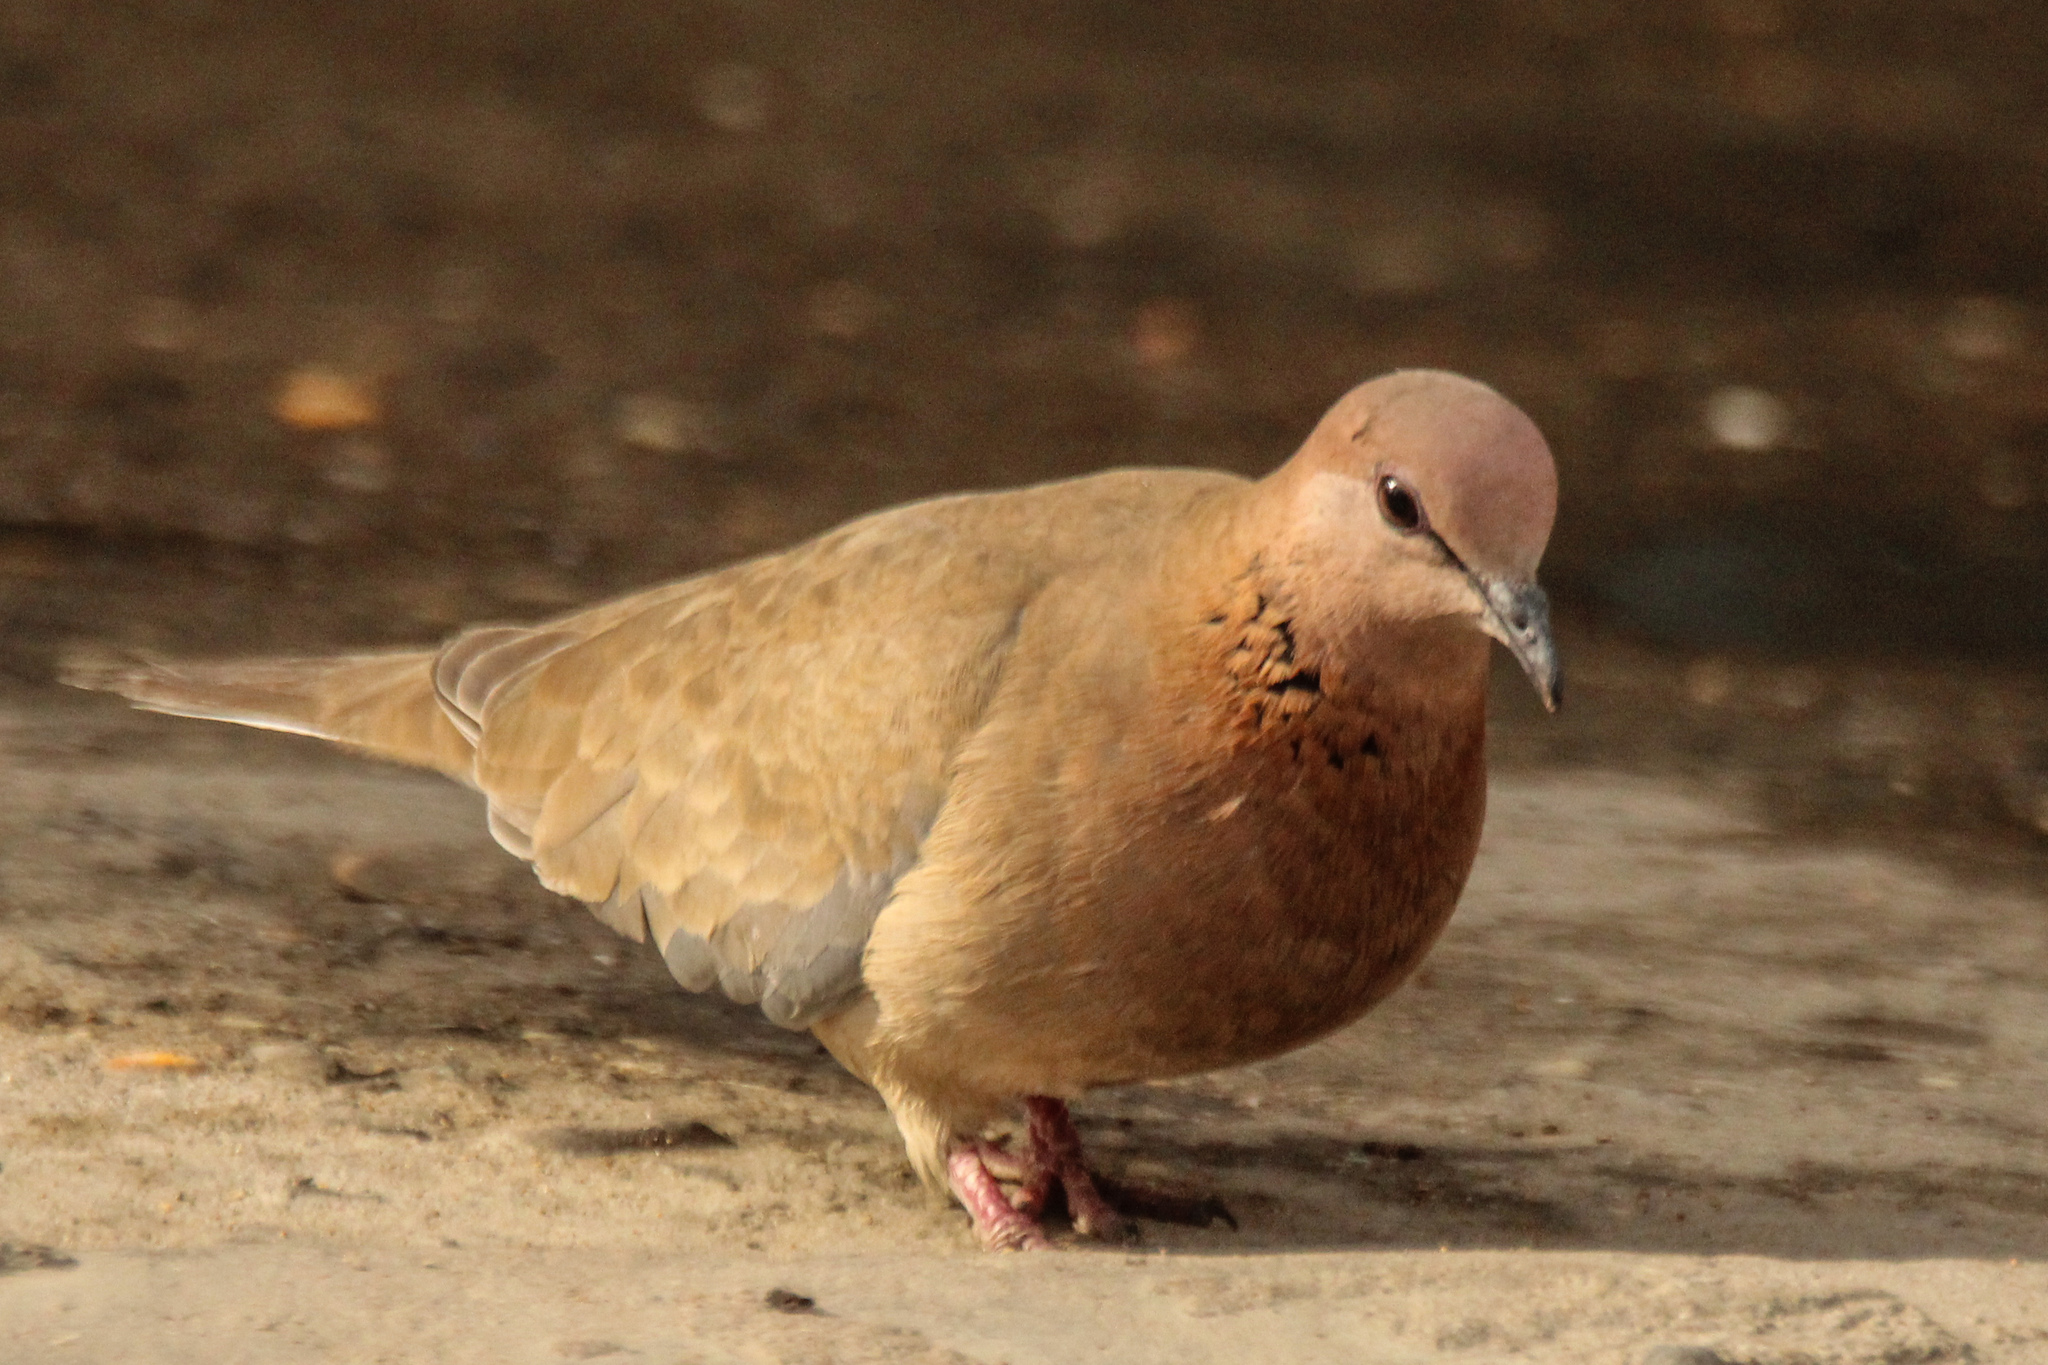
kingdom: Animalia
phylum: Chordata
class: Aves
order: Columbiformes
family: Columbidae
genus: Spilopelia
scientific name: Spilopelia senegalensis
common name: Laughing dove
